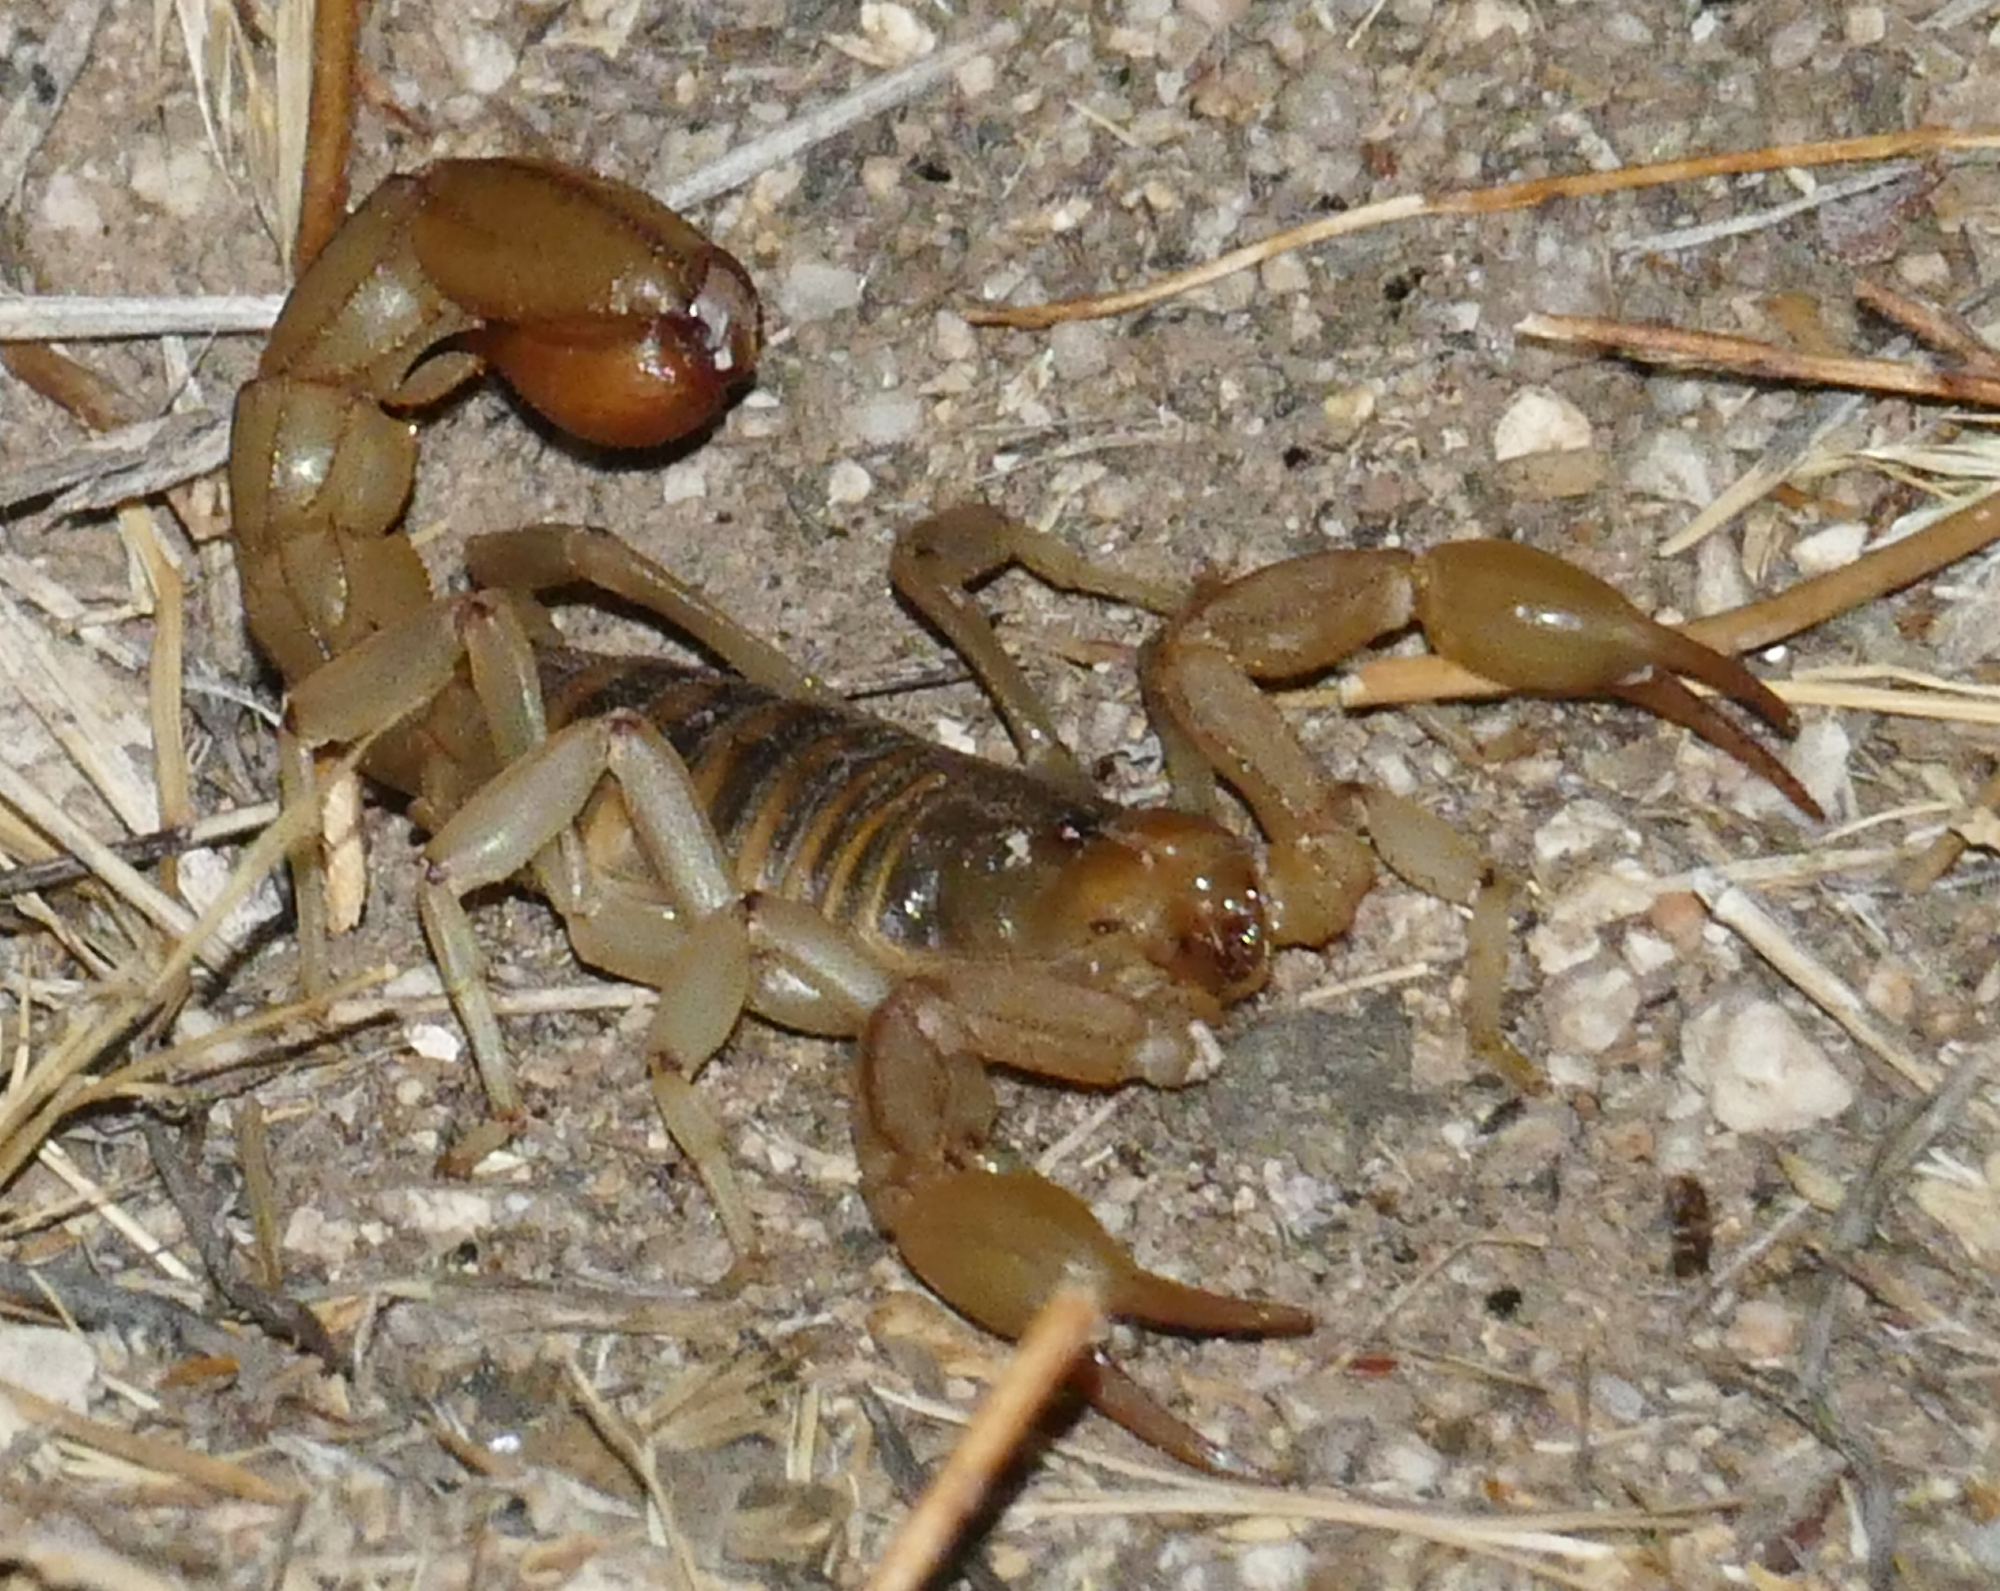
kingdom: Animalia
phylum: Arthropoda
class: Arachnida
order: Scorpiones
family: Vaejovidae
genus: Paravaejovis
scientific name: Paravaejovis spinigerus
